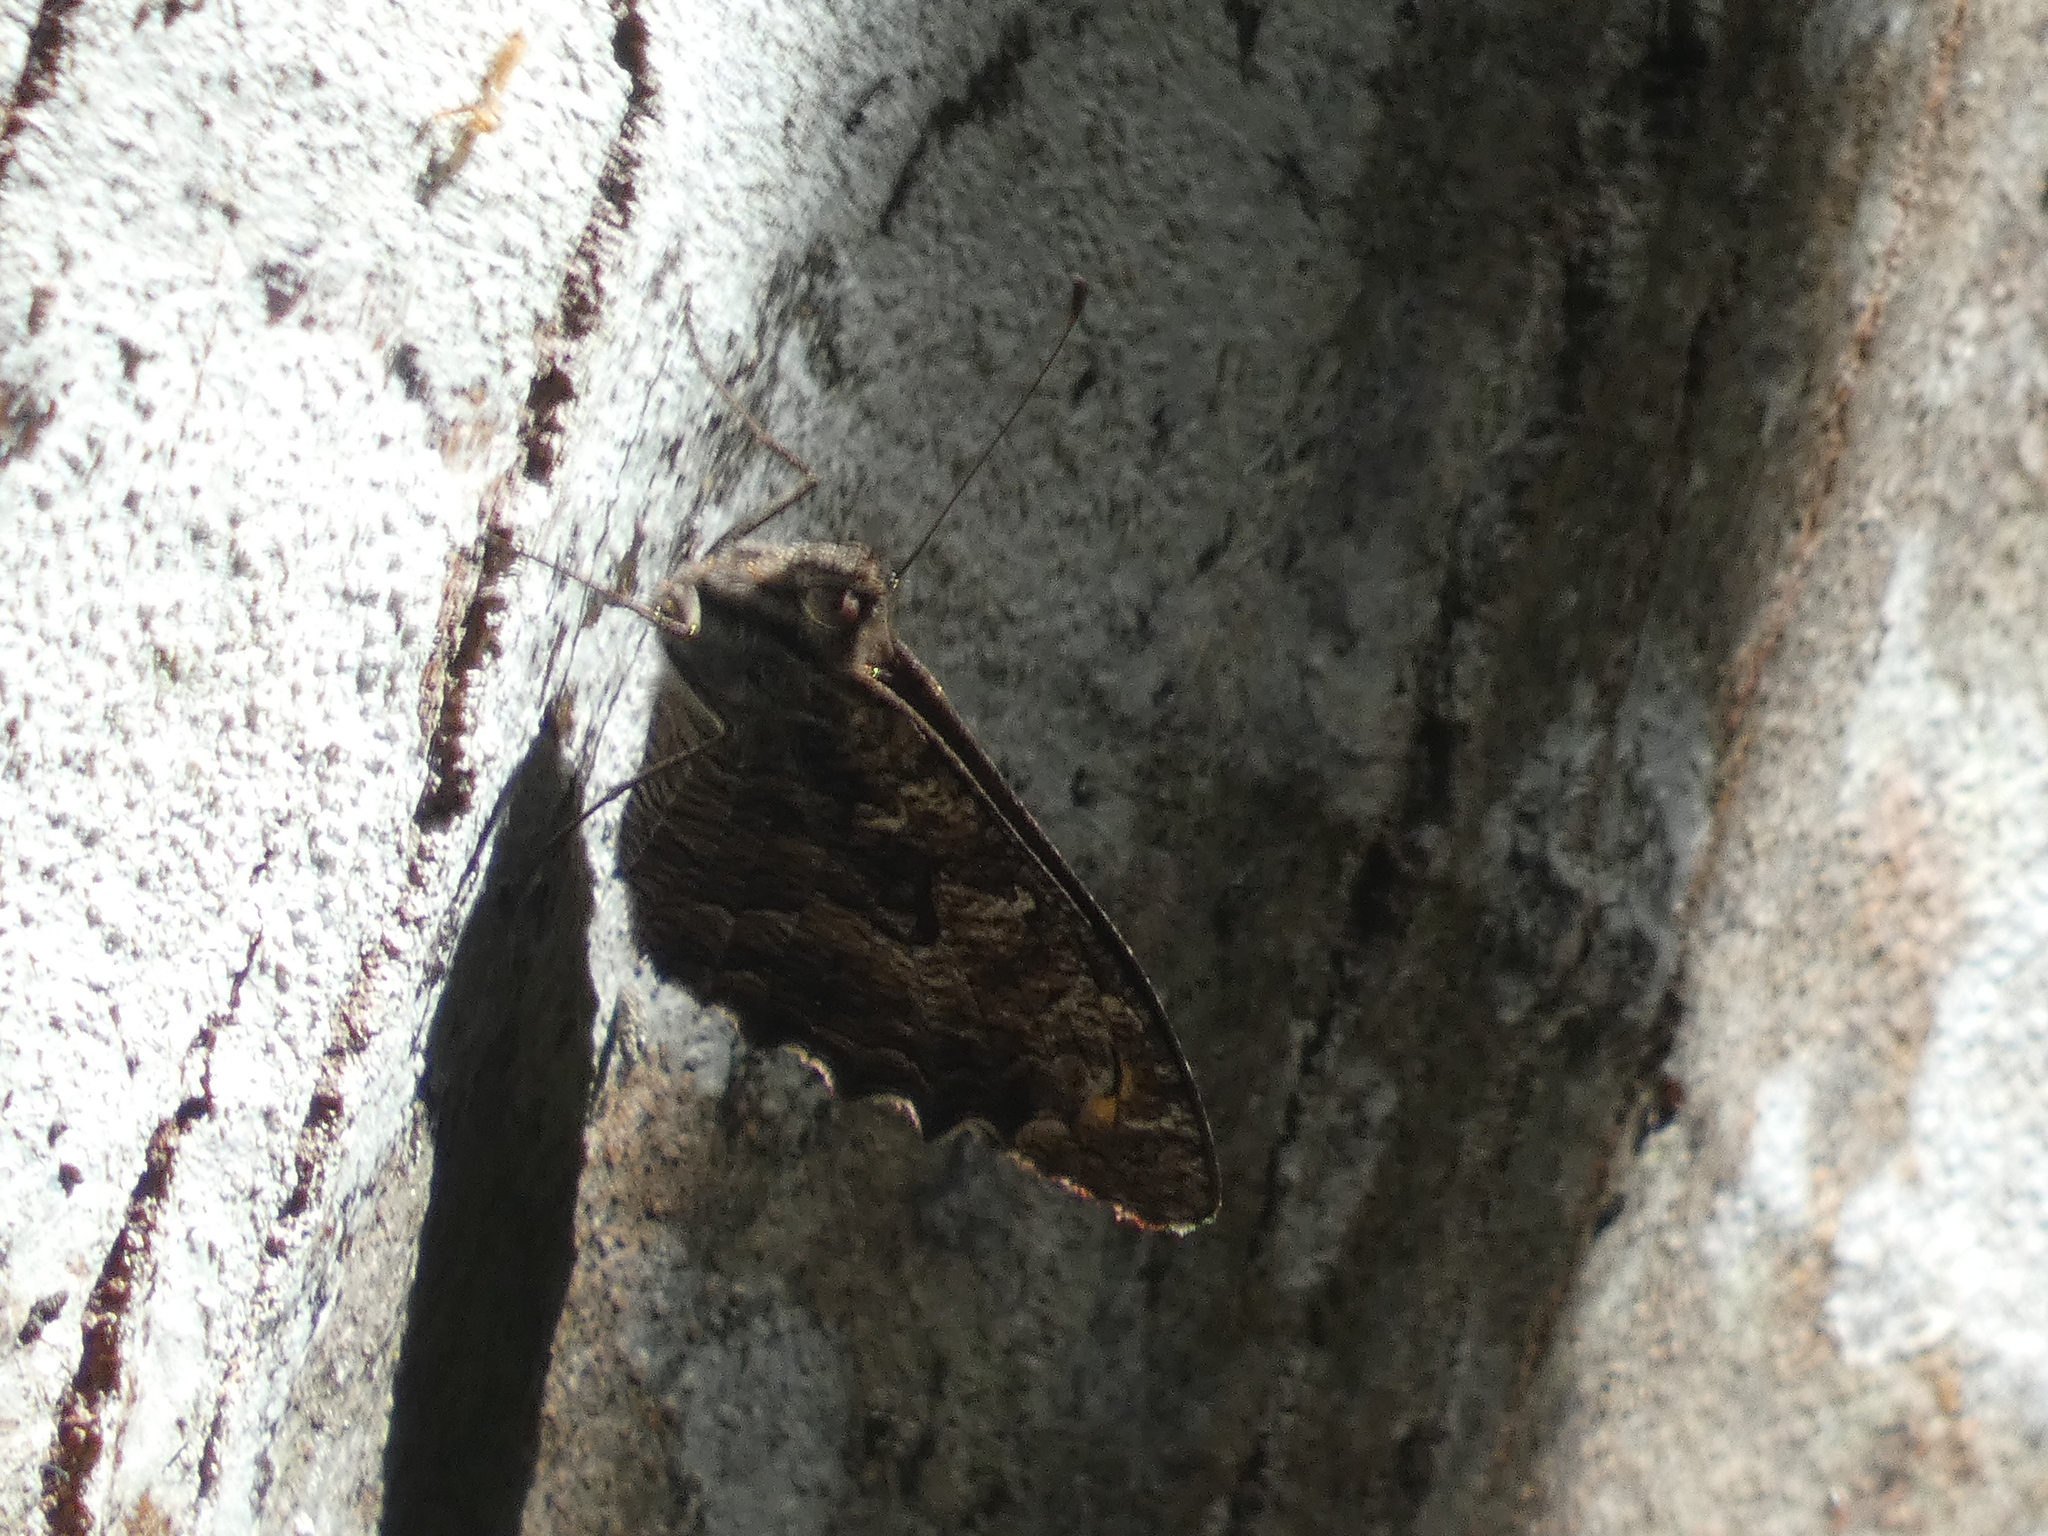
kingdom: Animalia
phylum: Arthropoda
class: Insecta
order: Lepidoptera
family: Nymphalidae
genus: Hipparchia
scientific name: Hipparchia semele
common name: Grayling
